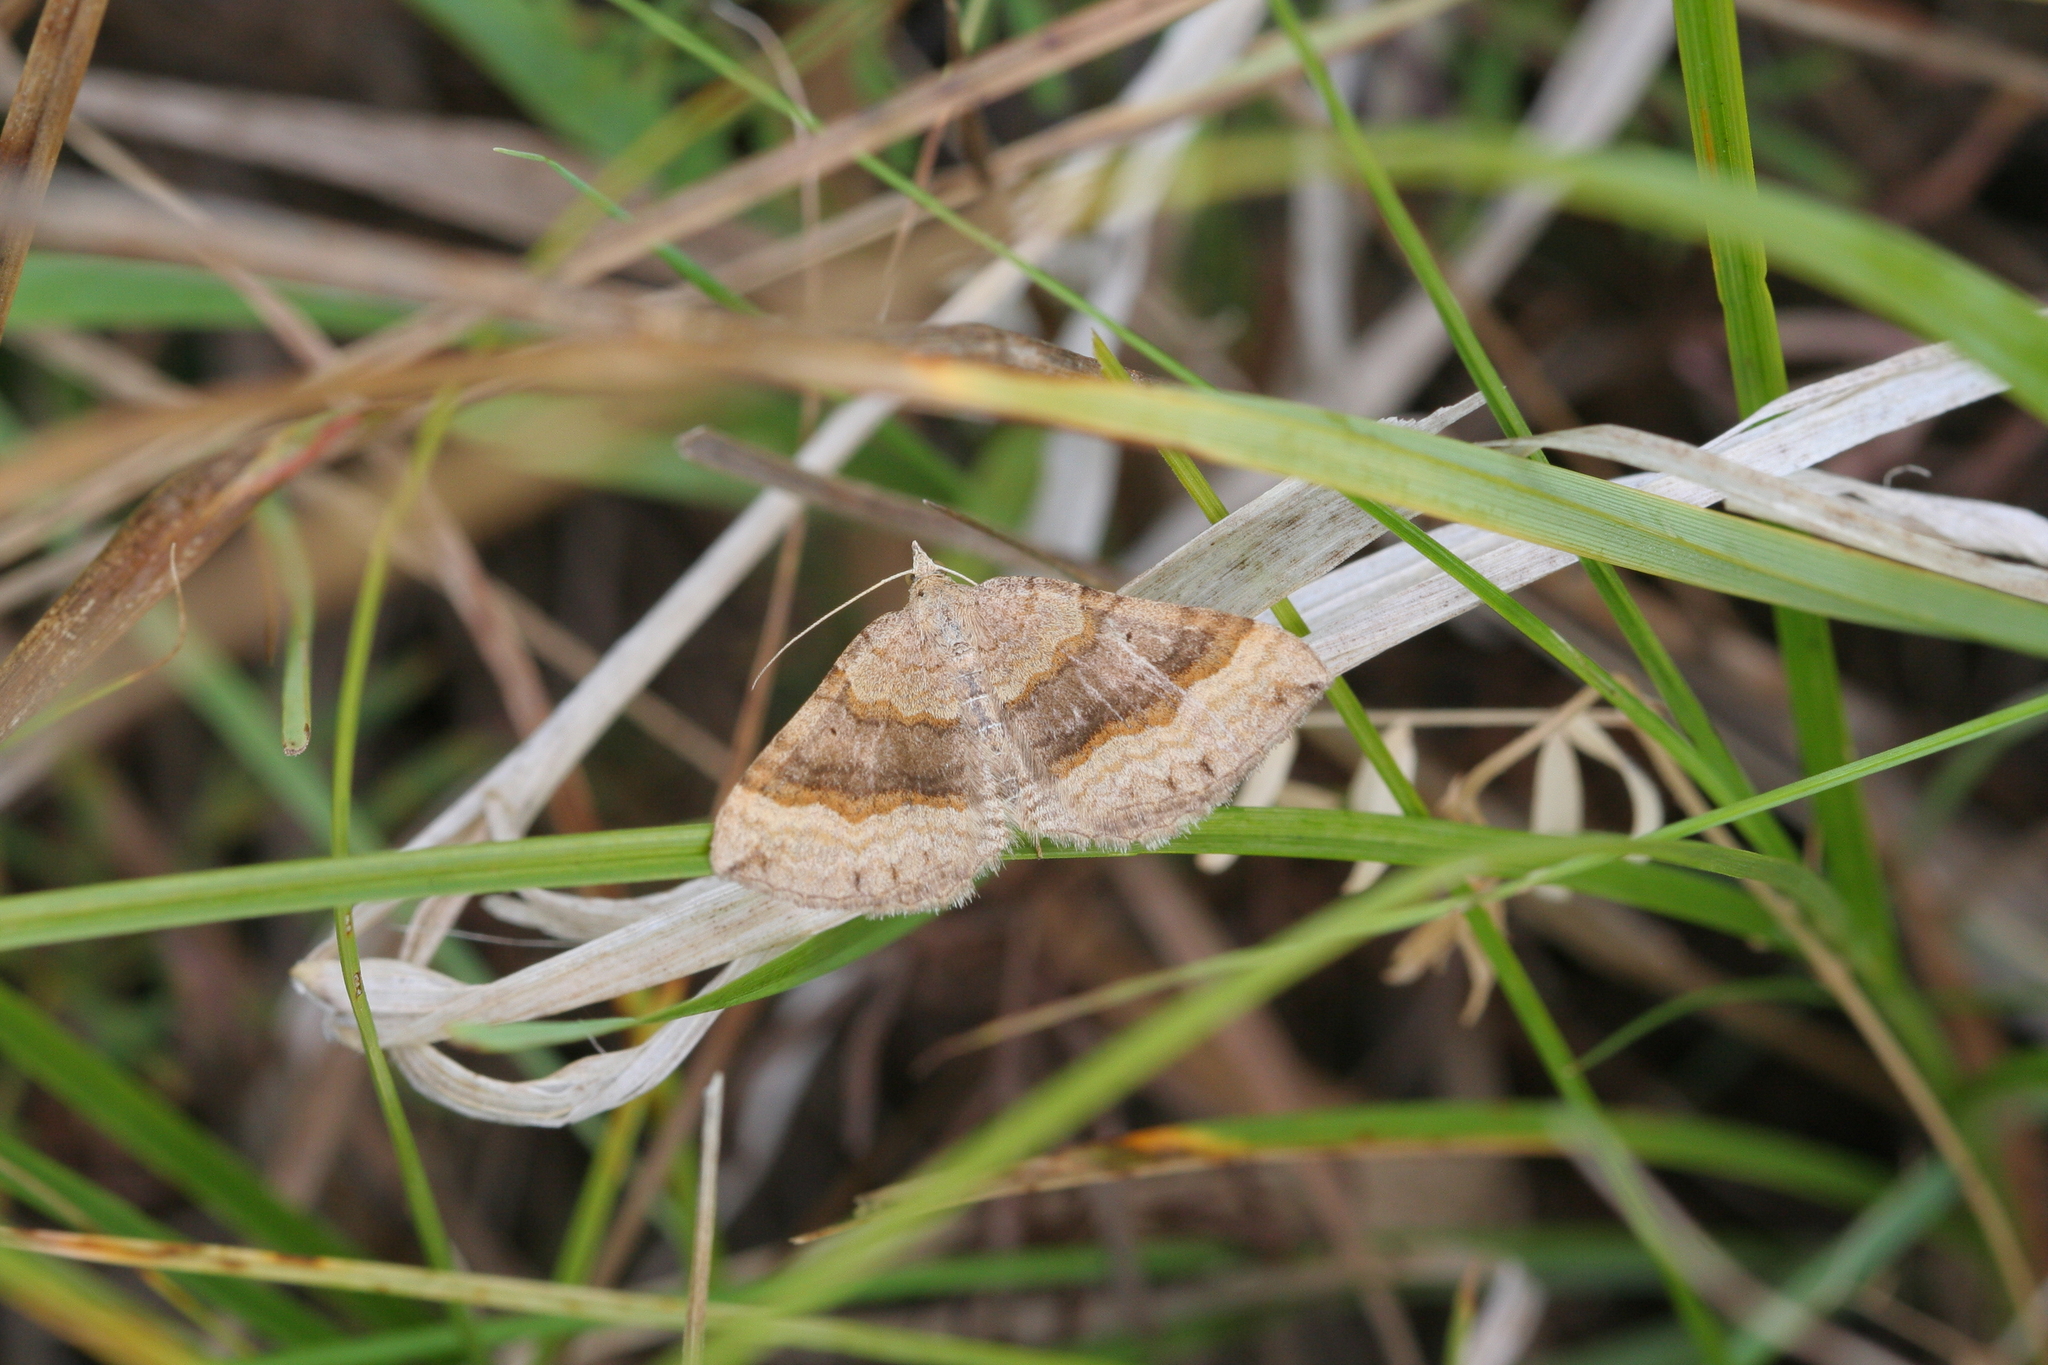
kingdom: Animalia
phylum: Arthropoda
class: Insecta
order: Lepidoptera
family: Geometridae
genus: Scotopteryx
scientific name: Scotopteryx chenopodiata
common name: Shaded broad-bar
